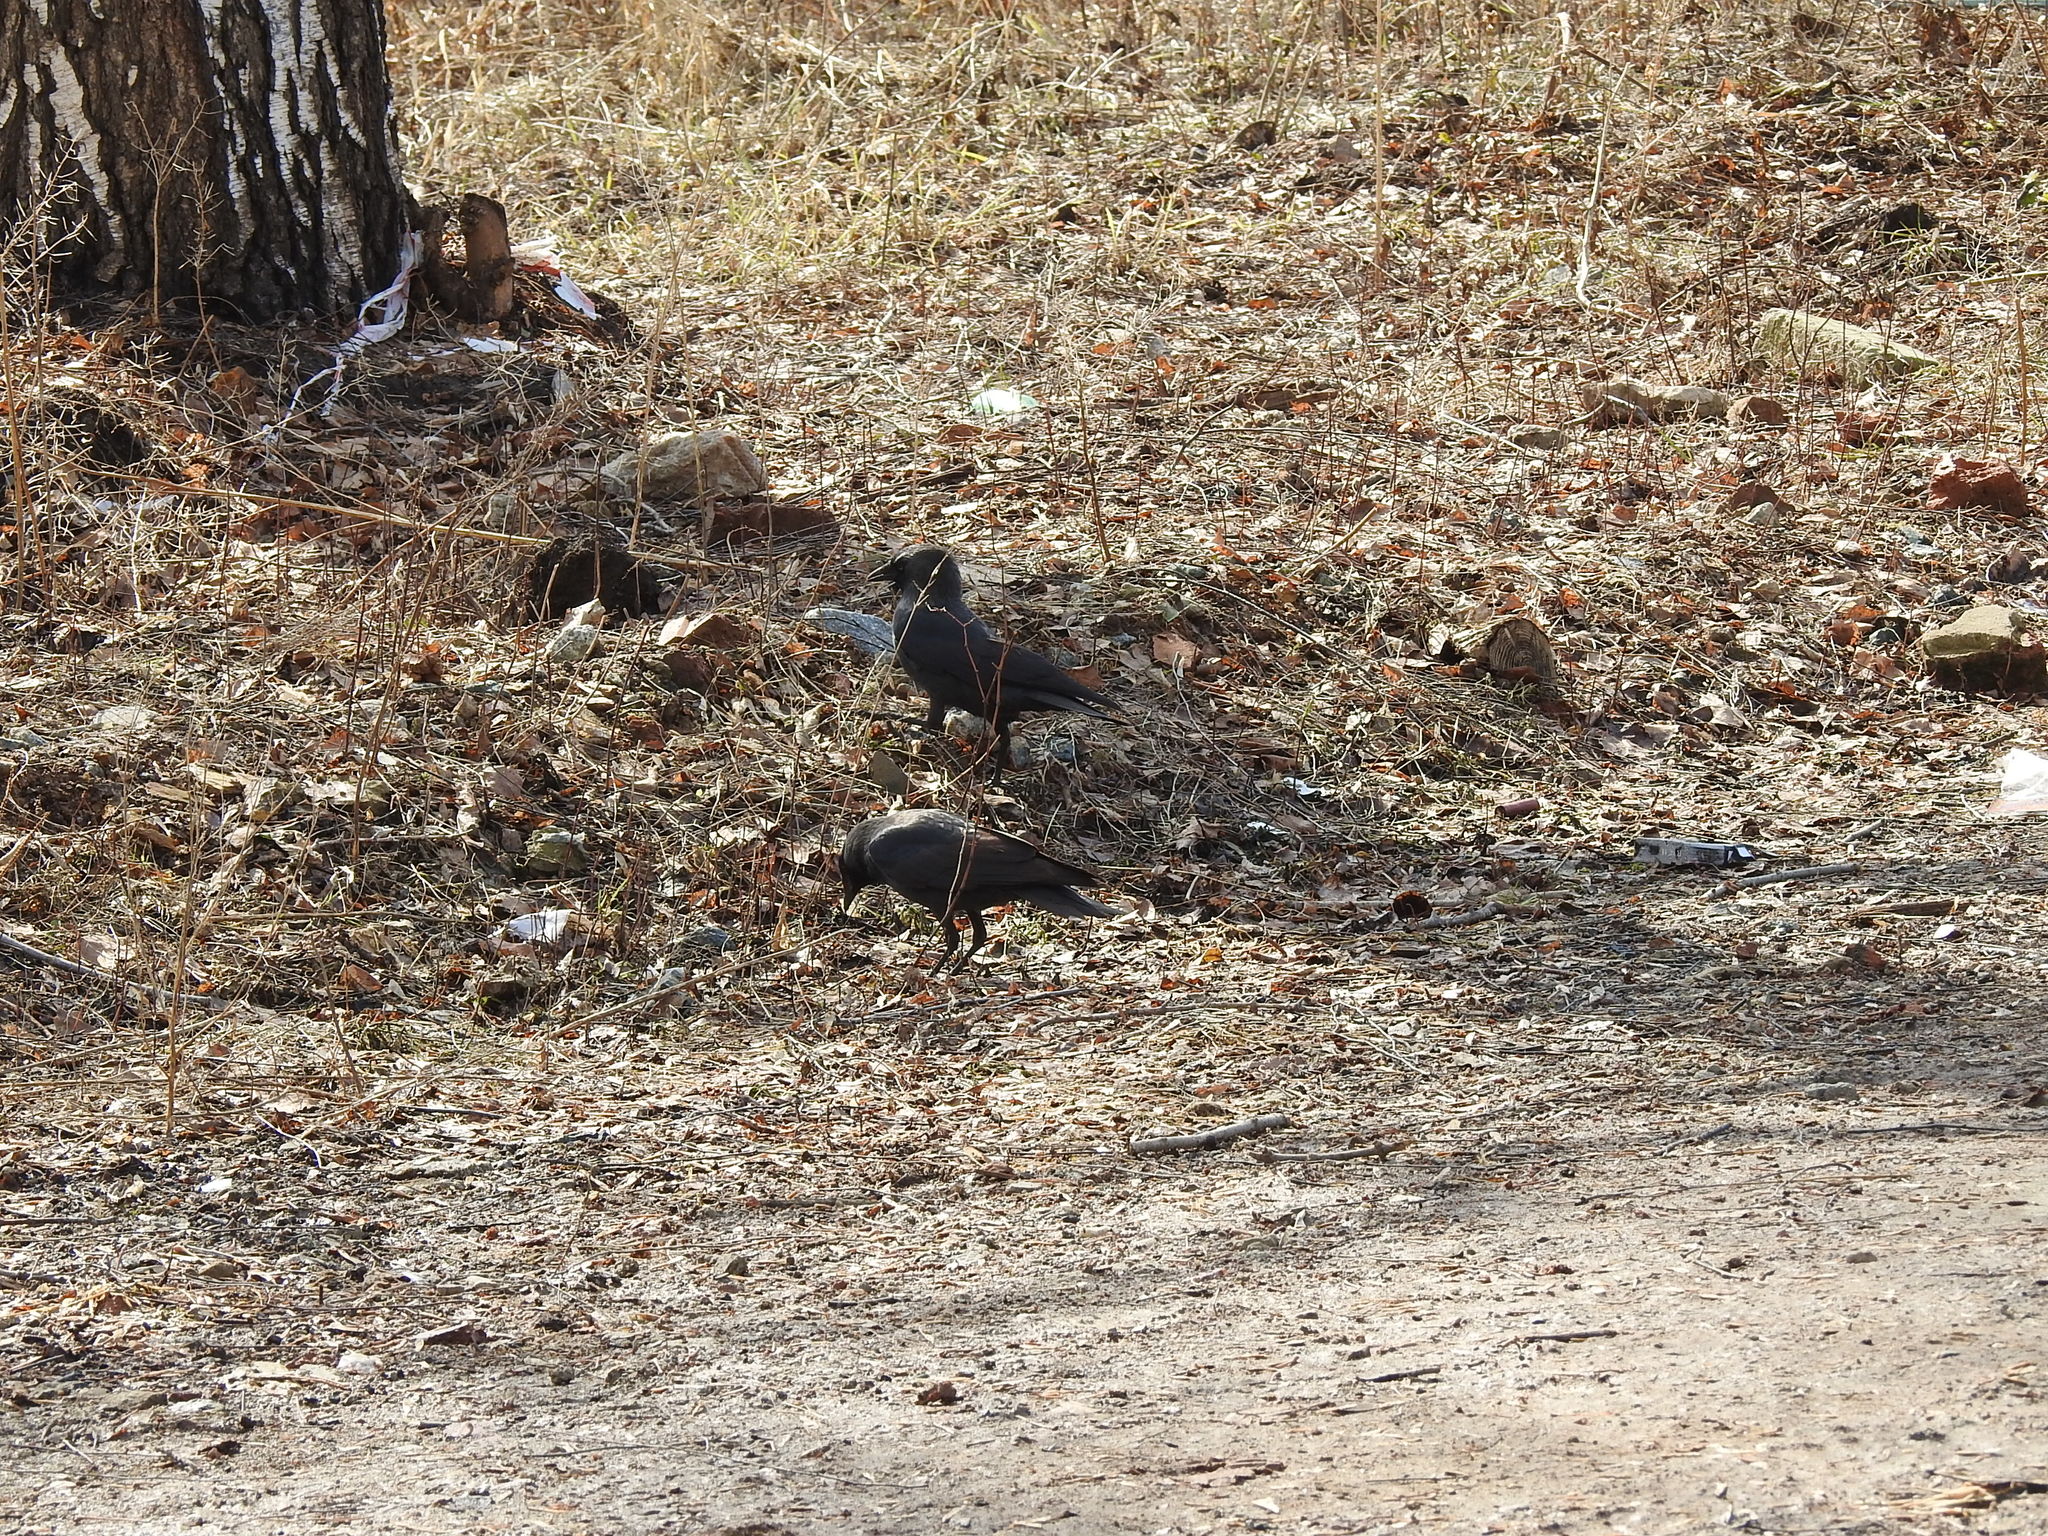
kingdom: Animalia
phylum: Chordata
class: Aves
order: Passeriformes
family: Corvidae
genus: Coloeus
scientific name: Coloeus monedula
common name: Western jackdaw
